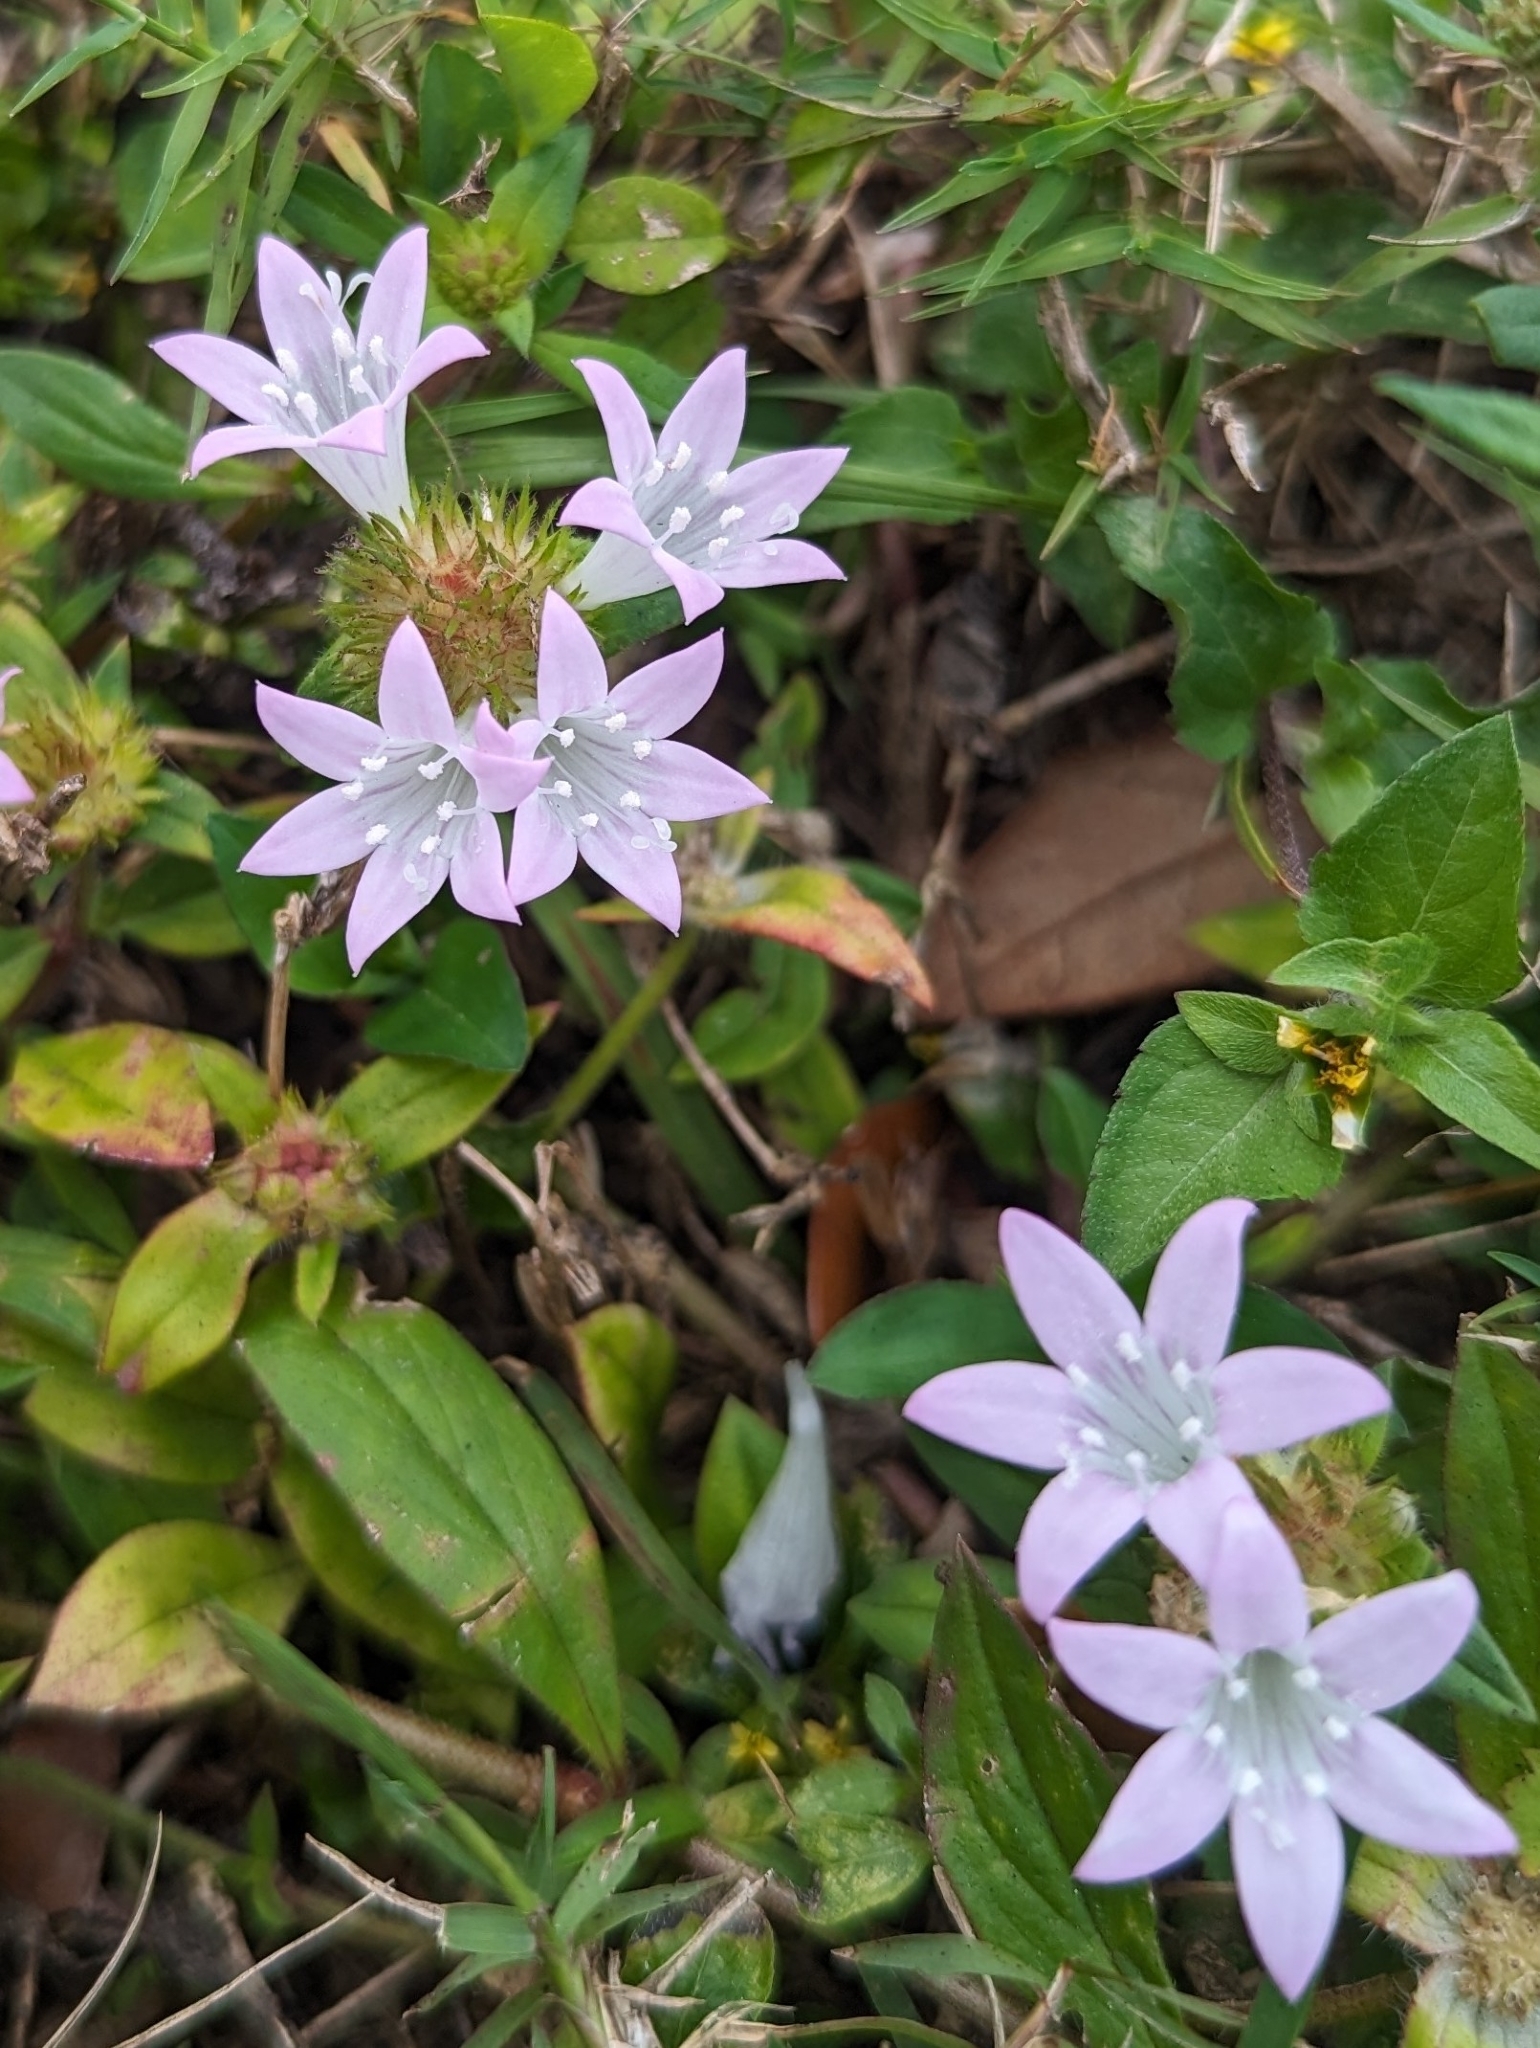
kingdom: Plantae
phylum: Tracheophyta
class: Magnoliopsida
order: Gentianales
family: Rubiaceae
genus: Richardia
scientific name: Richardia grandiflora
